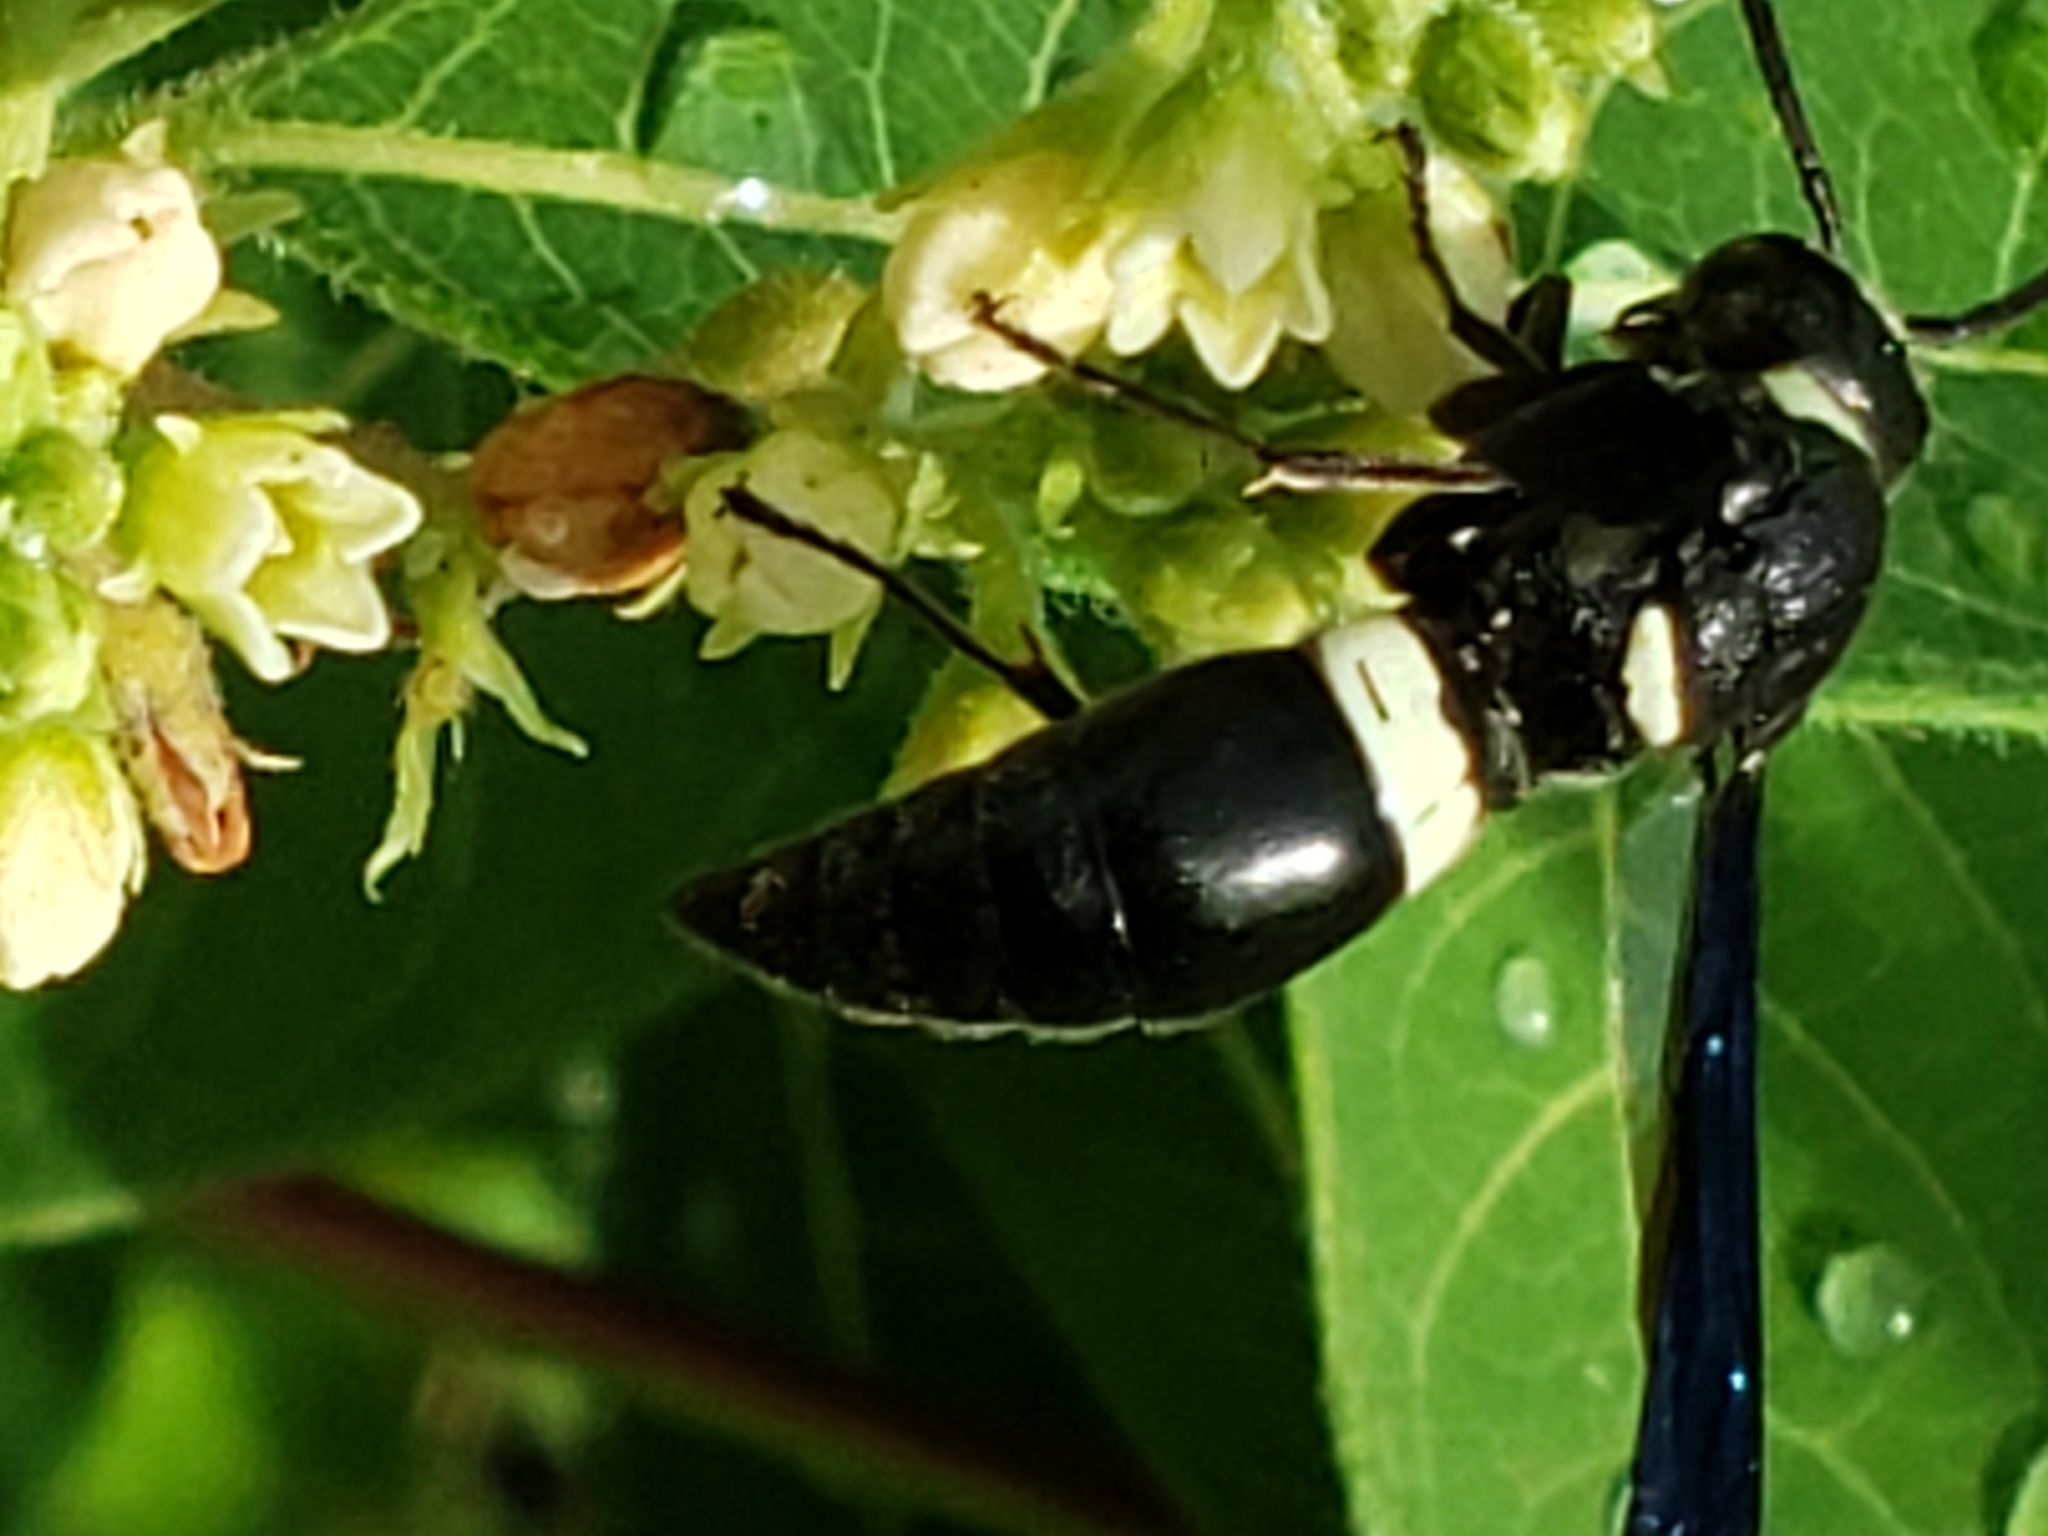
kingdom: Animalia
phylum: Arthropoda
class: Insecta
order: Hymenoptera
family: Eumenidae
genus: Monobia
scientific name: Monobia quadridens
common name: Four-toothed mason wasp
